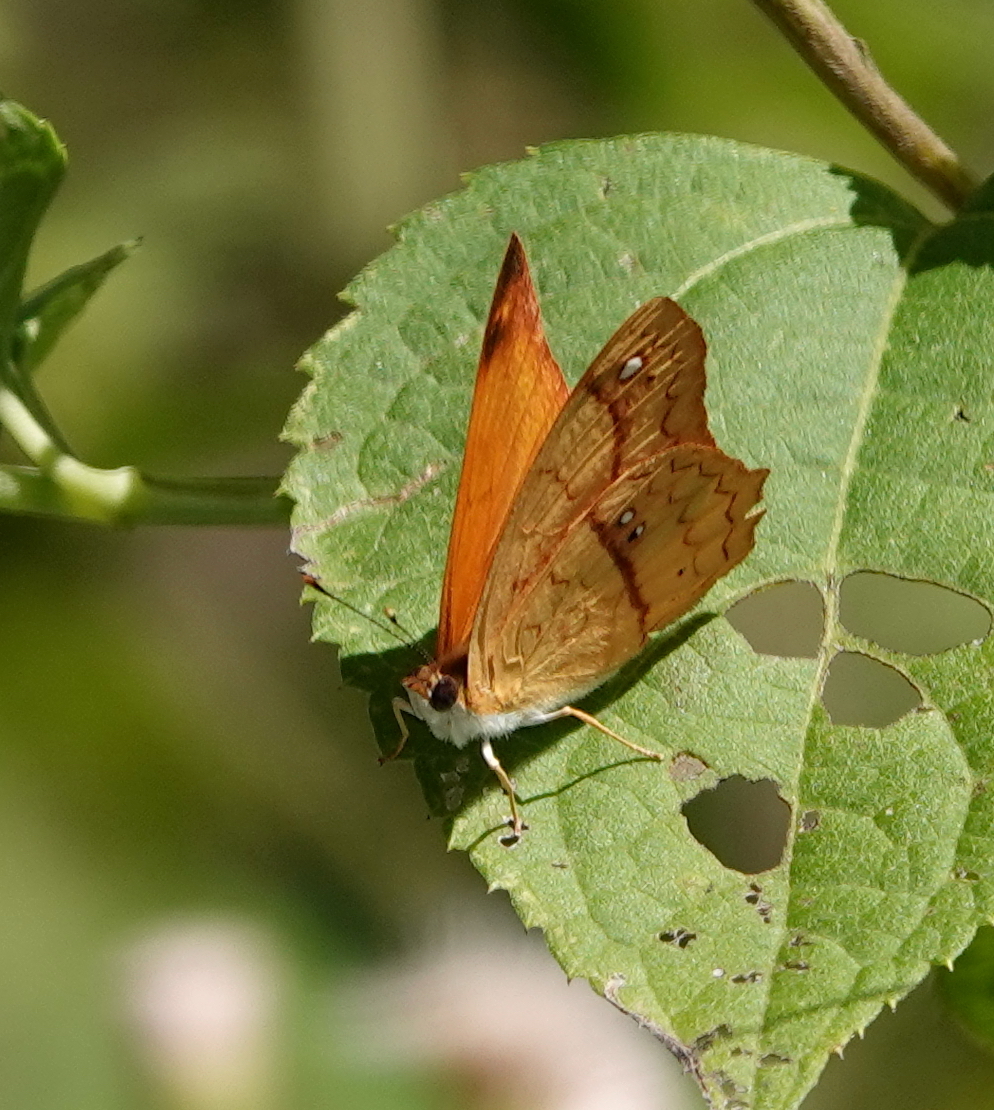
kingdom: Animalia
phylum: Arthropoda
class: Insecta
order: Lepidoptera
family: Nymphalidae
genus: Nica
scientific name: Nica flavilla
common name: Mandarin nica
